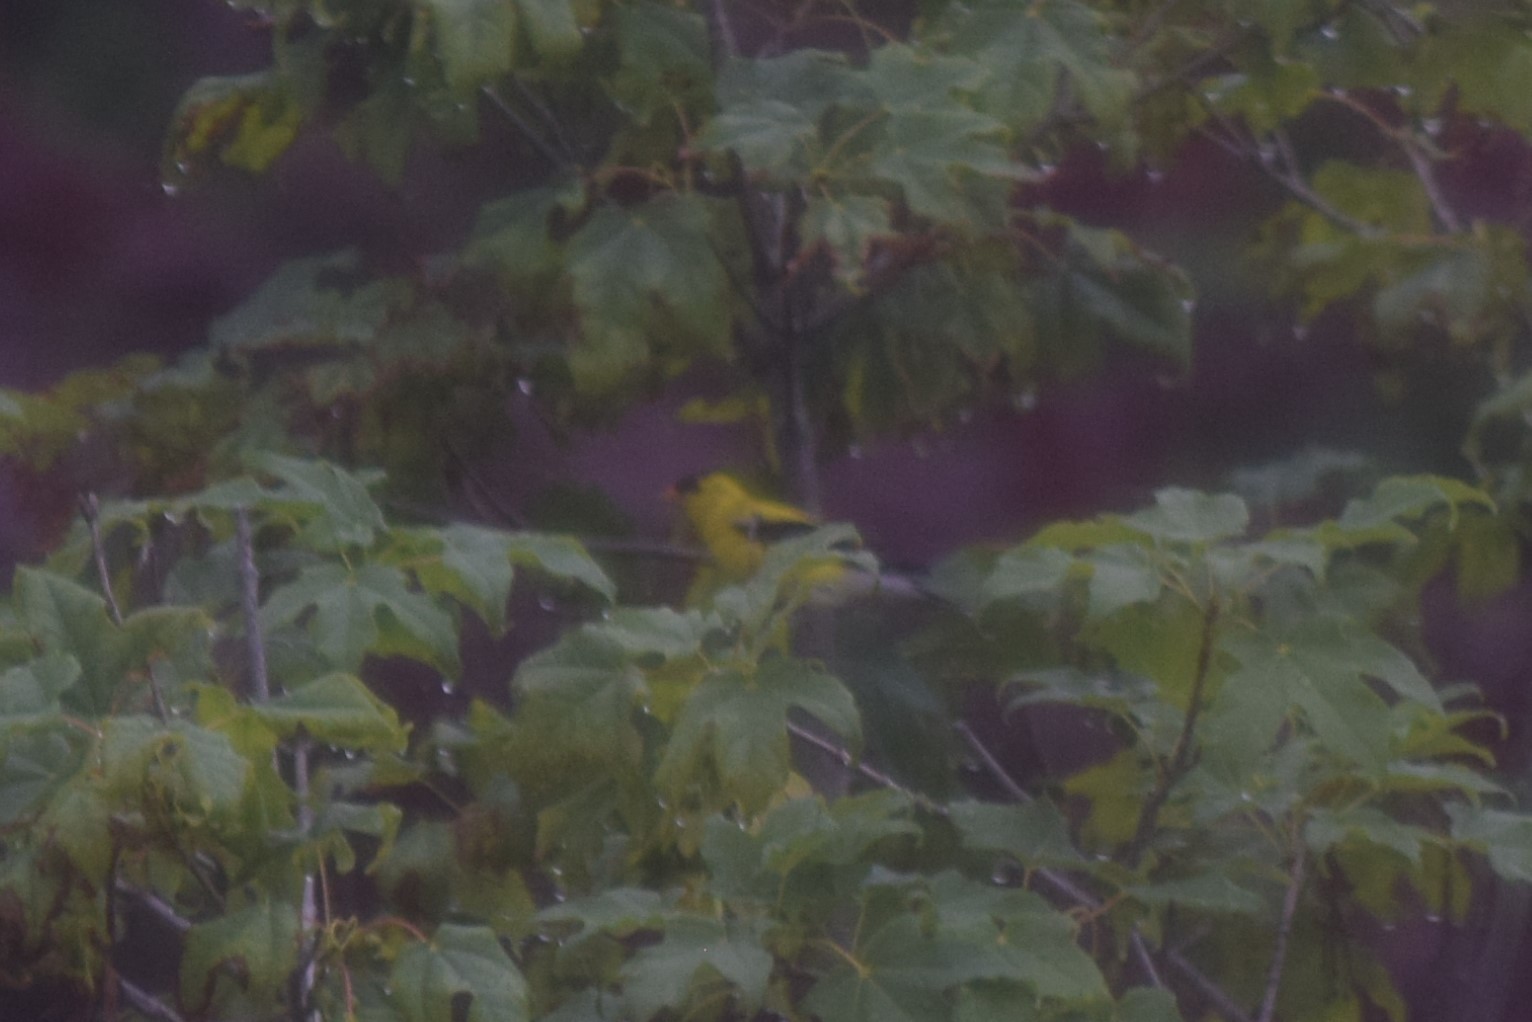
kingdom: Animalia
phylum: Chordata
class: Aves
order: Passeriformes
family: Fringillidae
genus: Spinus
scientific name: Spinus tristis
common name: American goldfinch
